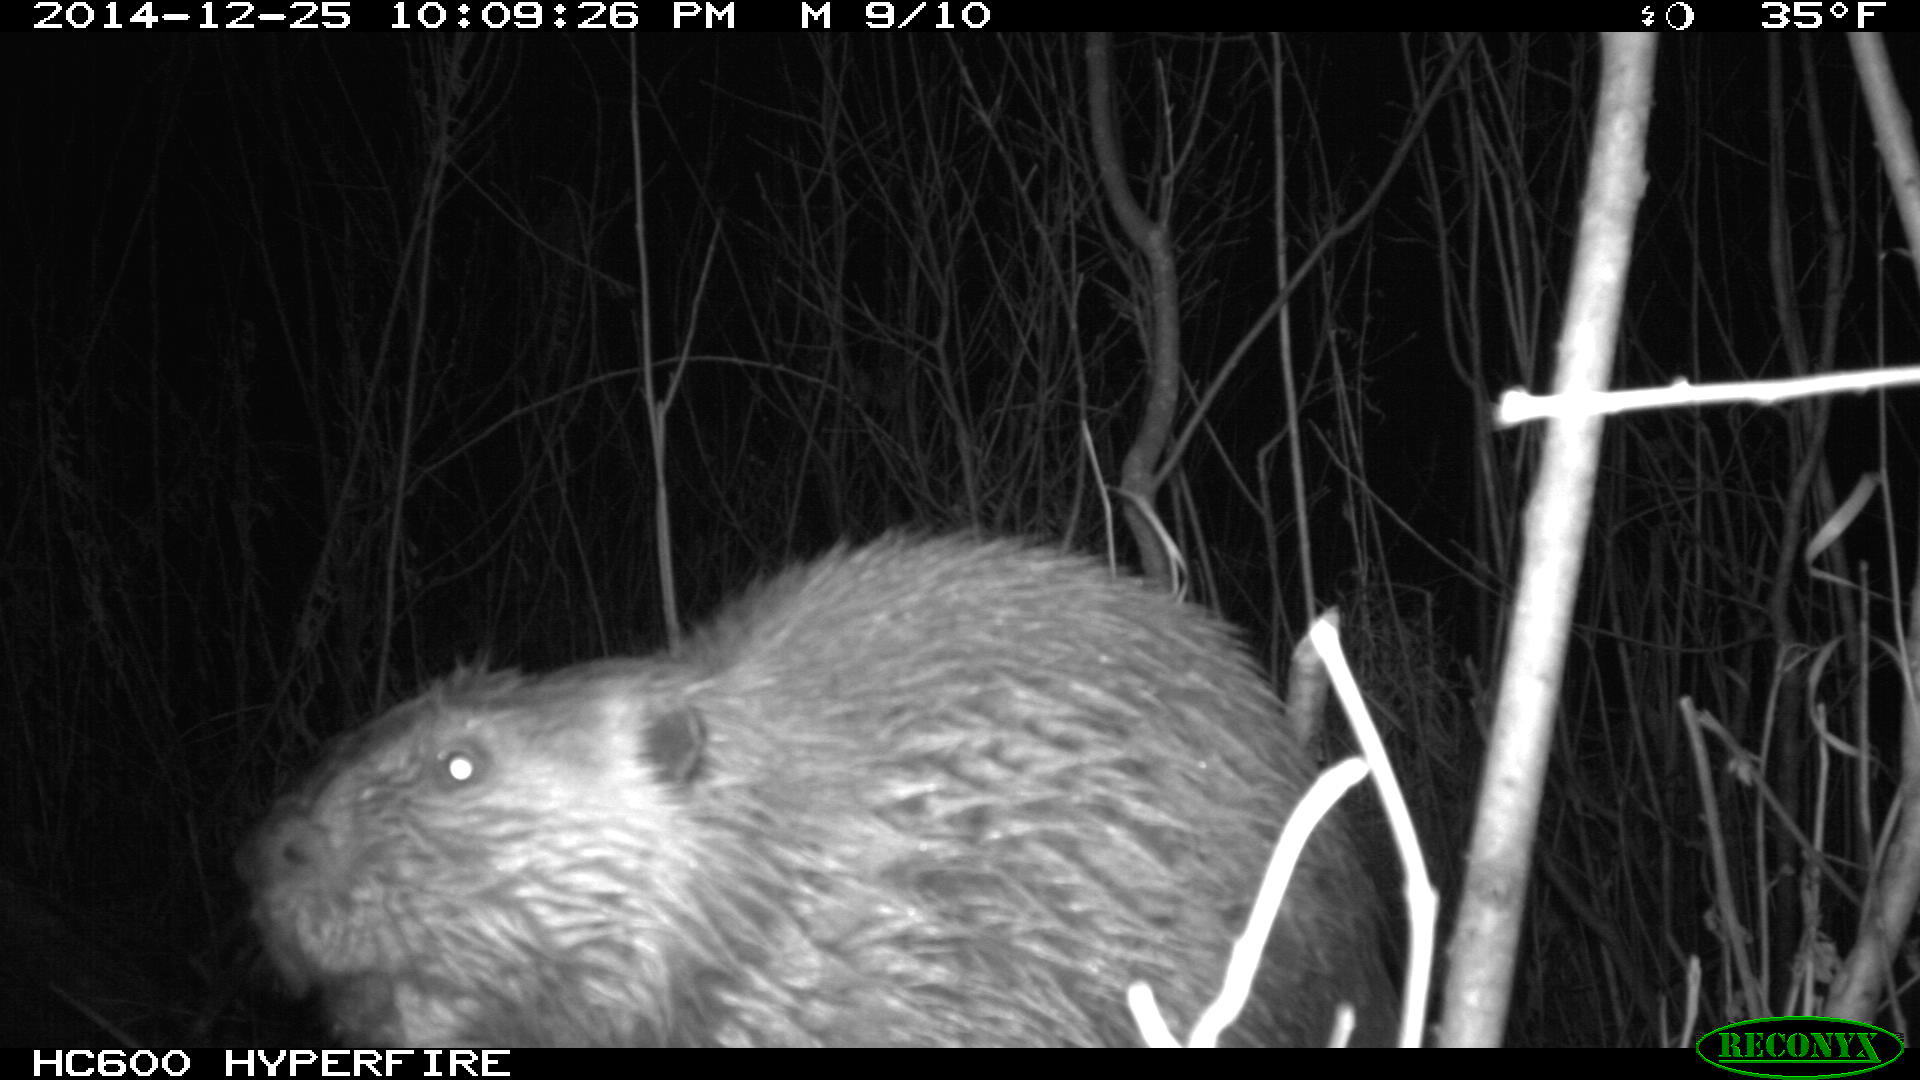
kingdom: Animalia
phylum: Chordata
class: Mammalia
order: Rodentia
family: Castoridae
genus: Castor
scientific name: Castor canadensis
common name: American beaver
